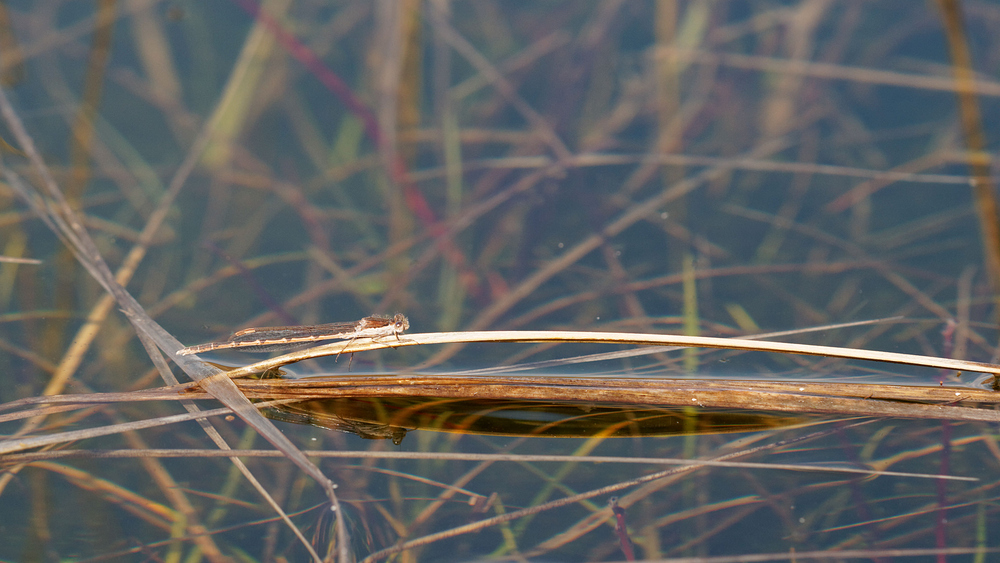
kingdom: Animalia
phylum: Arthropoda
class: Insecta
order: Odonata
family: Lestidae
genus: Sympecma
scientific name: Sympecma fusca
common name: Common winter damsel
